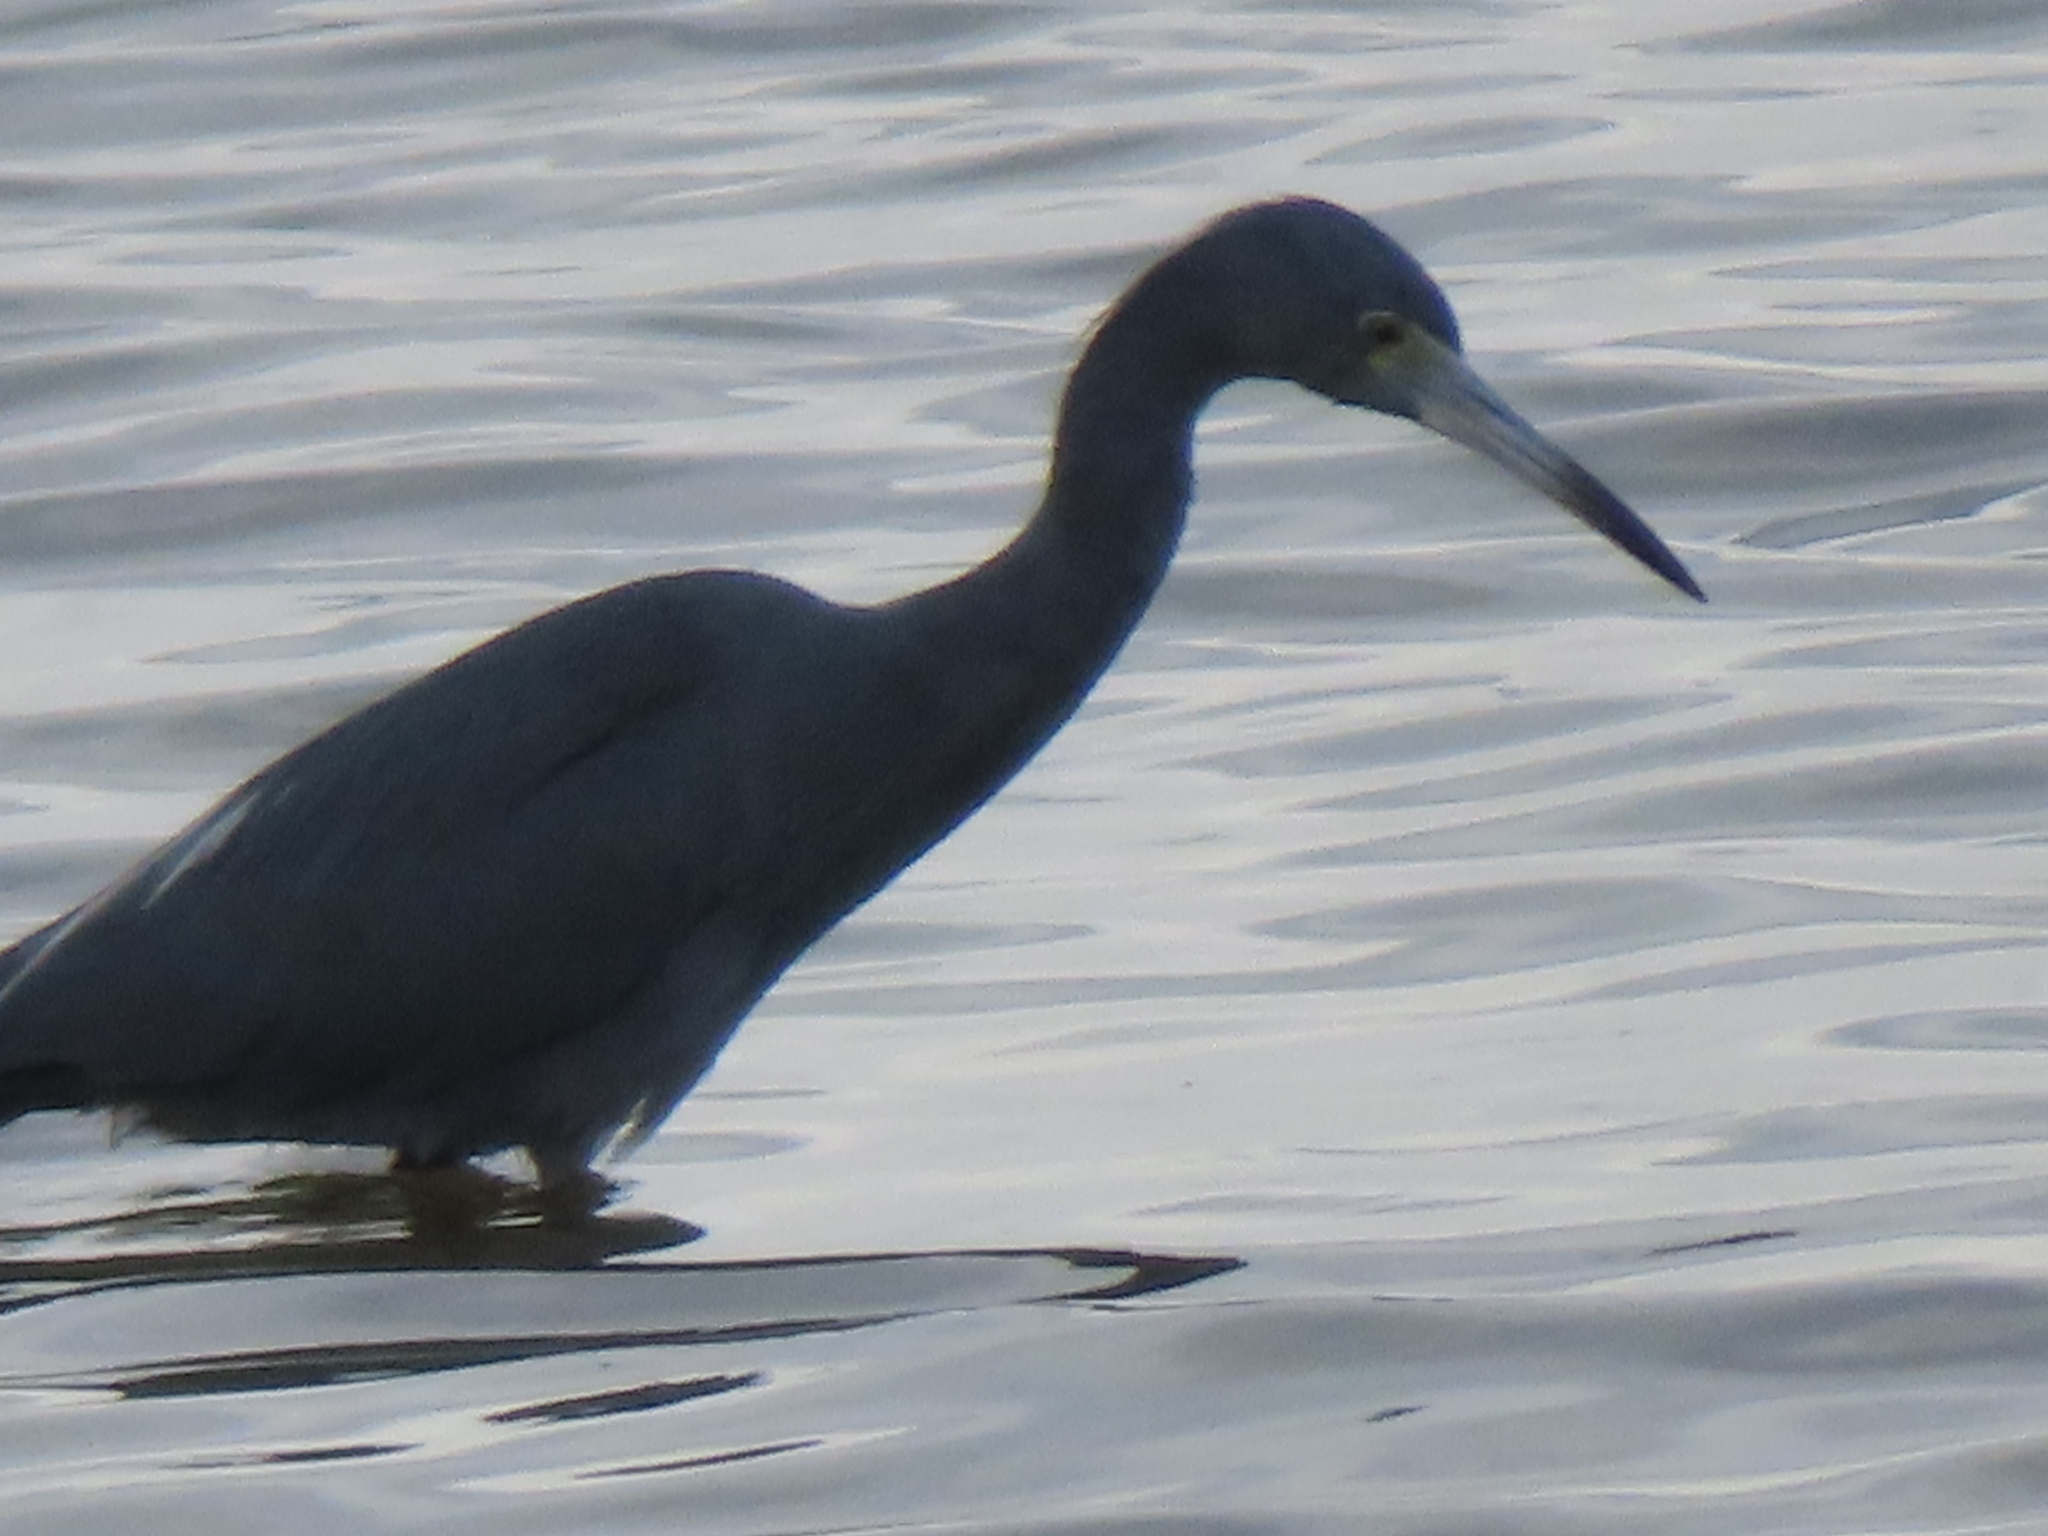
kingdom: Animalia
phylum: Chordata
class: Aves
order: Pelecaniformes
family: Ardeidae
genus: Egretta
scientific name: Egretta caerulea
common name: Little blue heron
